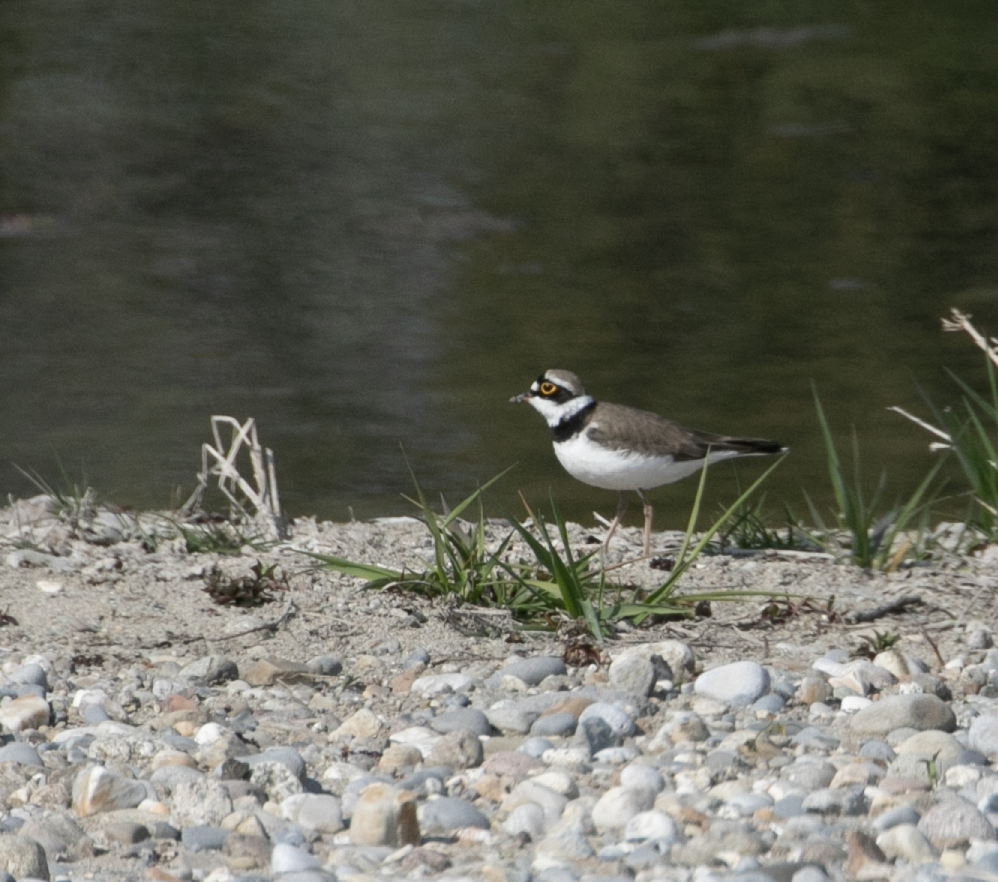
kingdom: Animalia
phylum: Chordata
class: Aves
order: Charadriiformes
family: Charadriidae
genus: Charadrius
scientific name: Charadrius dubius
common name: Little ringed plover
